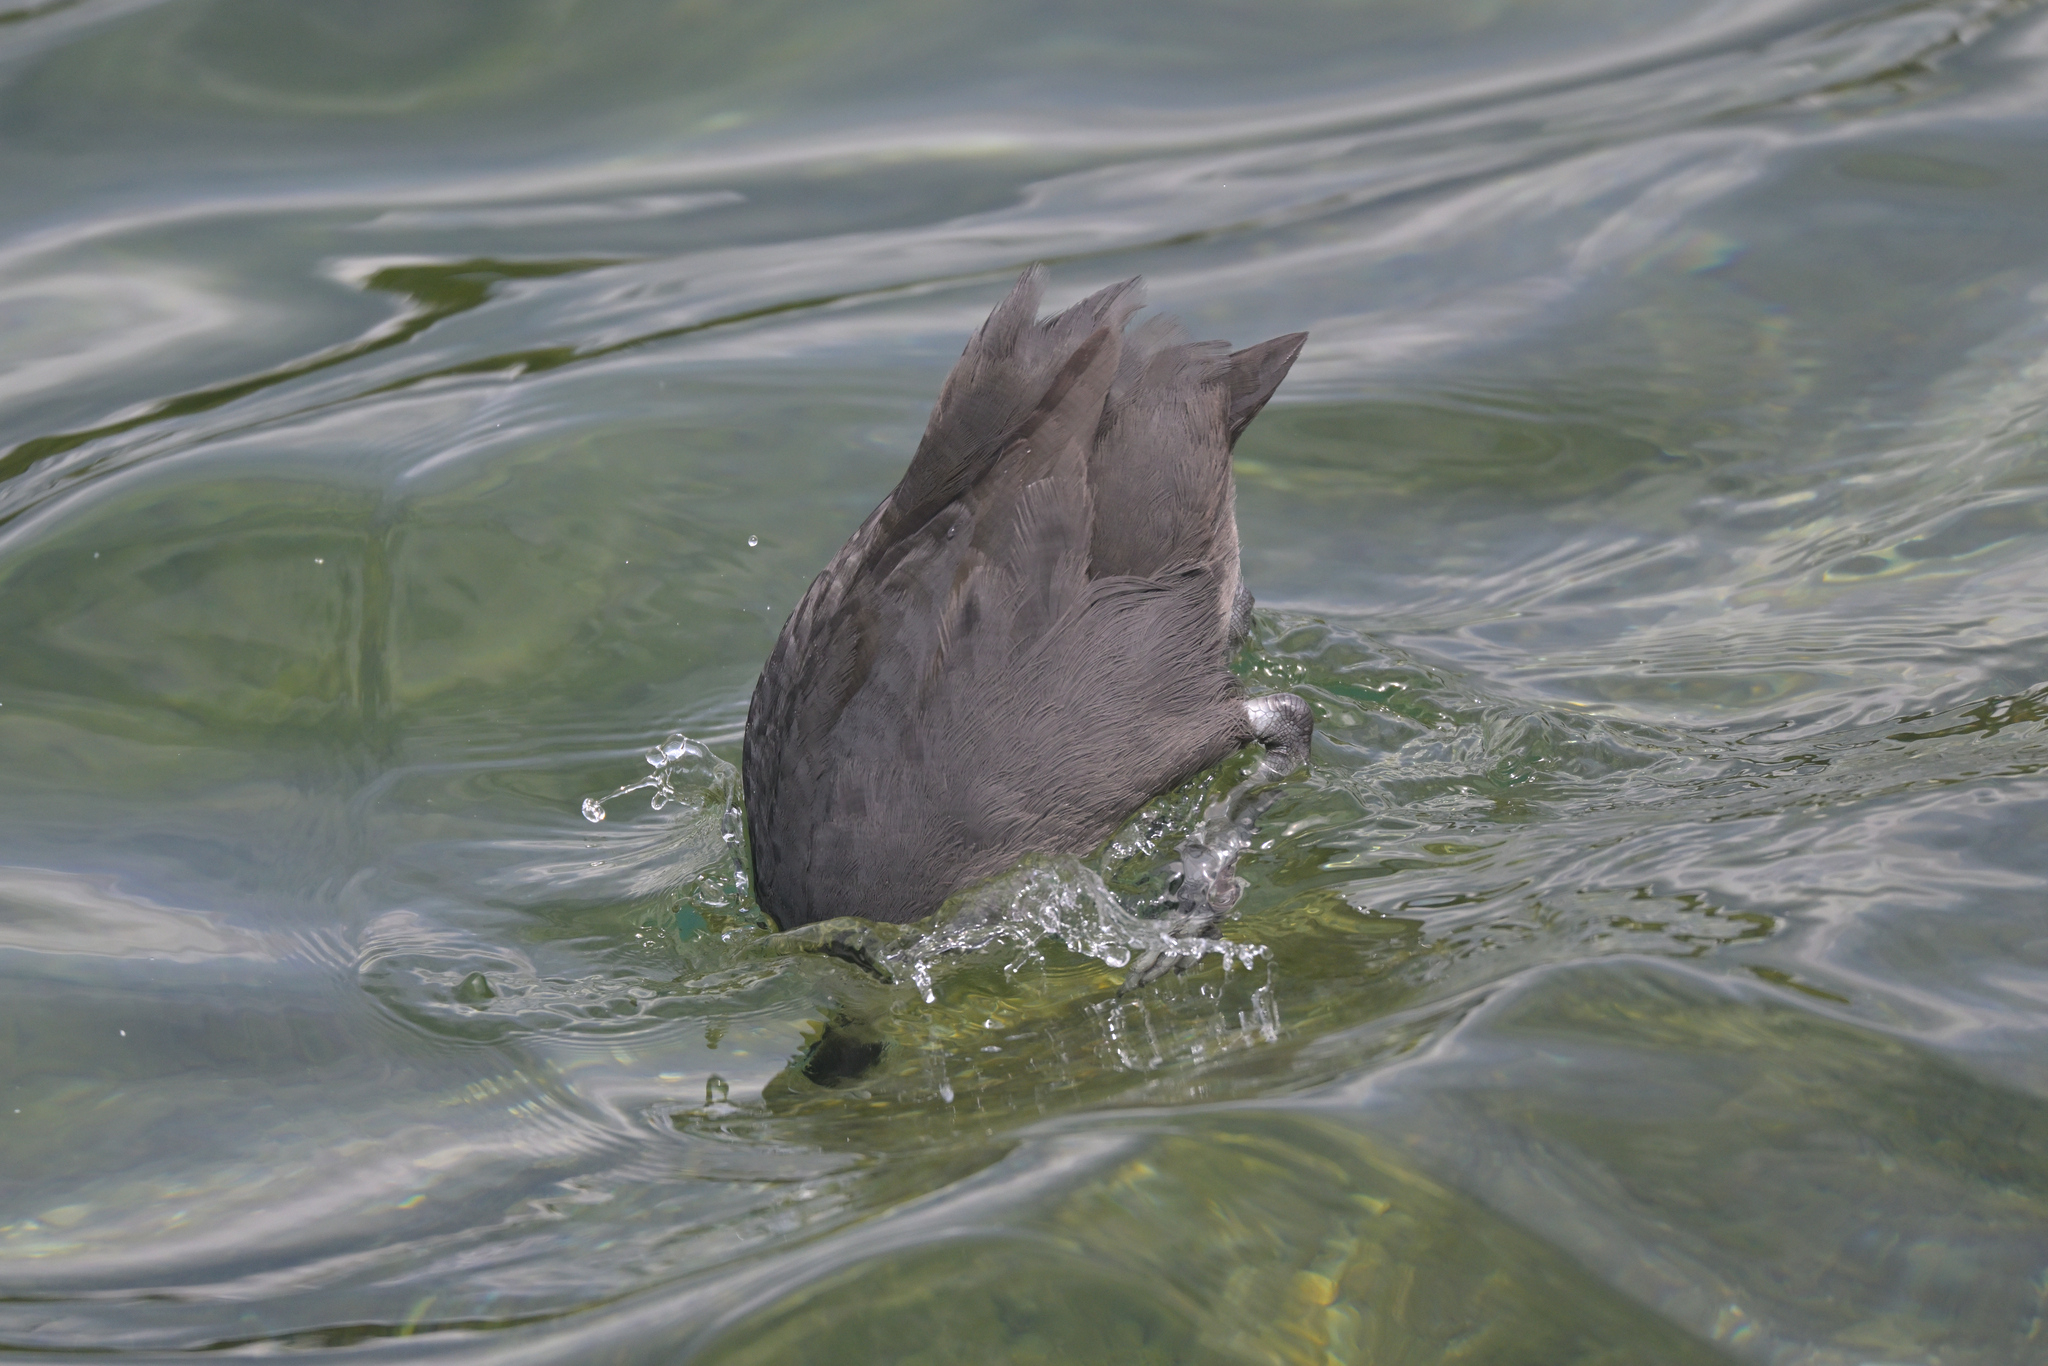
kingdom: Animalia
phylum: Chordata
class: Aves
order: Gruiformes
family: Rallidae
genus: Fulica
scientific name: Fulica atra
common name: Eurasian coot
